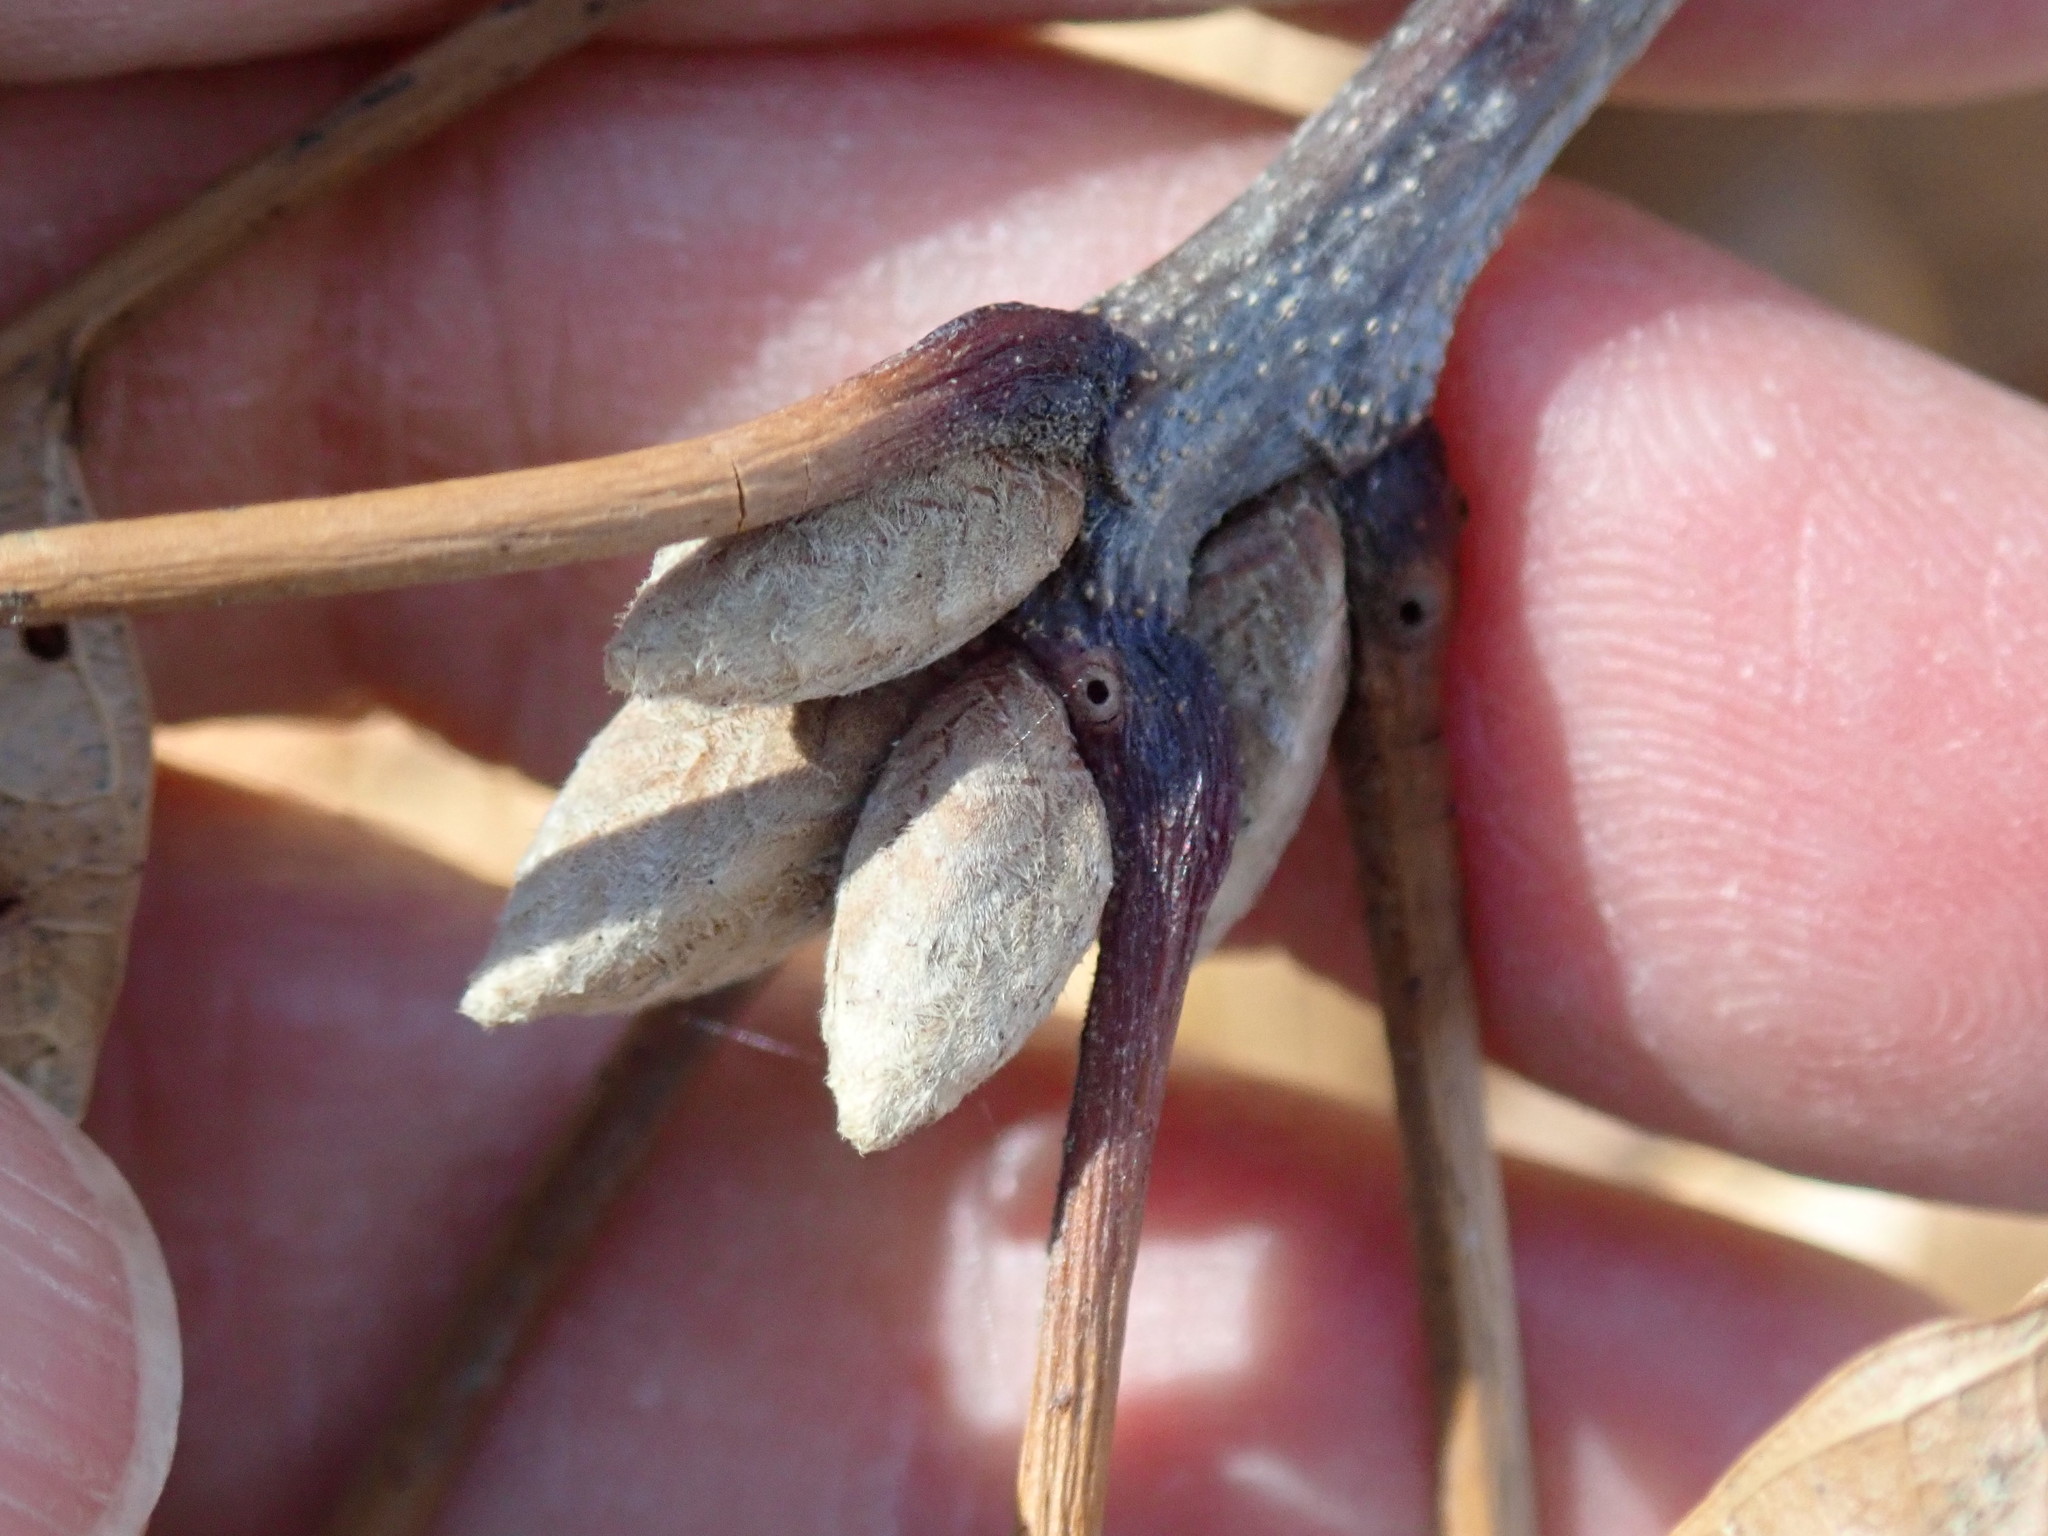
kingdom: Plantae
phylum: Tracheophyta
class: Magnoliopsida
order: Fagales
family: Fagaceae
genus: Quercus
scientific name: Quercus velutina
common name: Black oak
